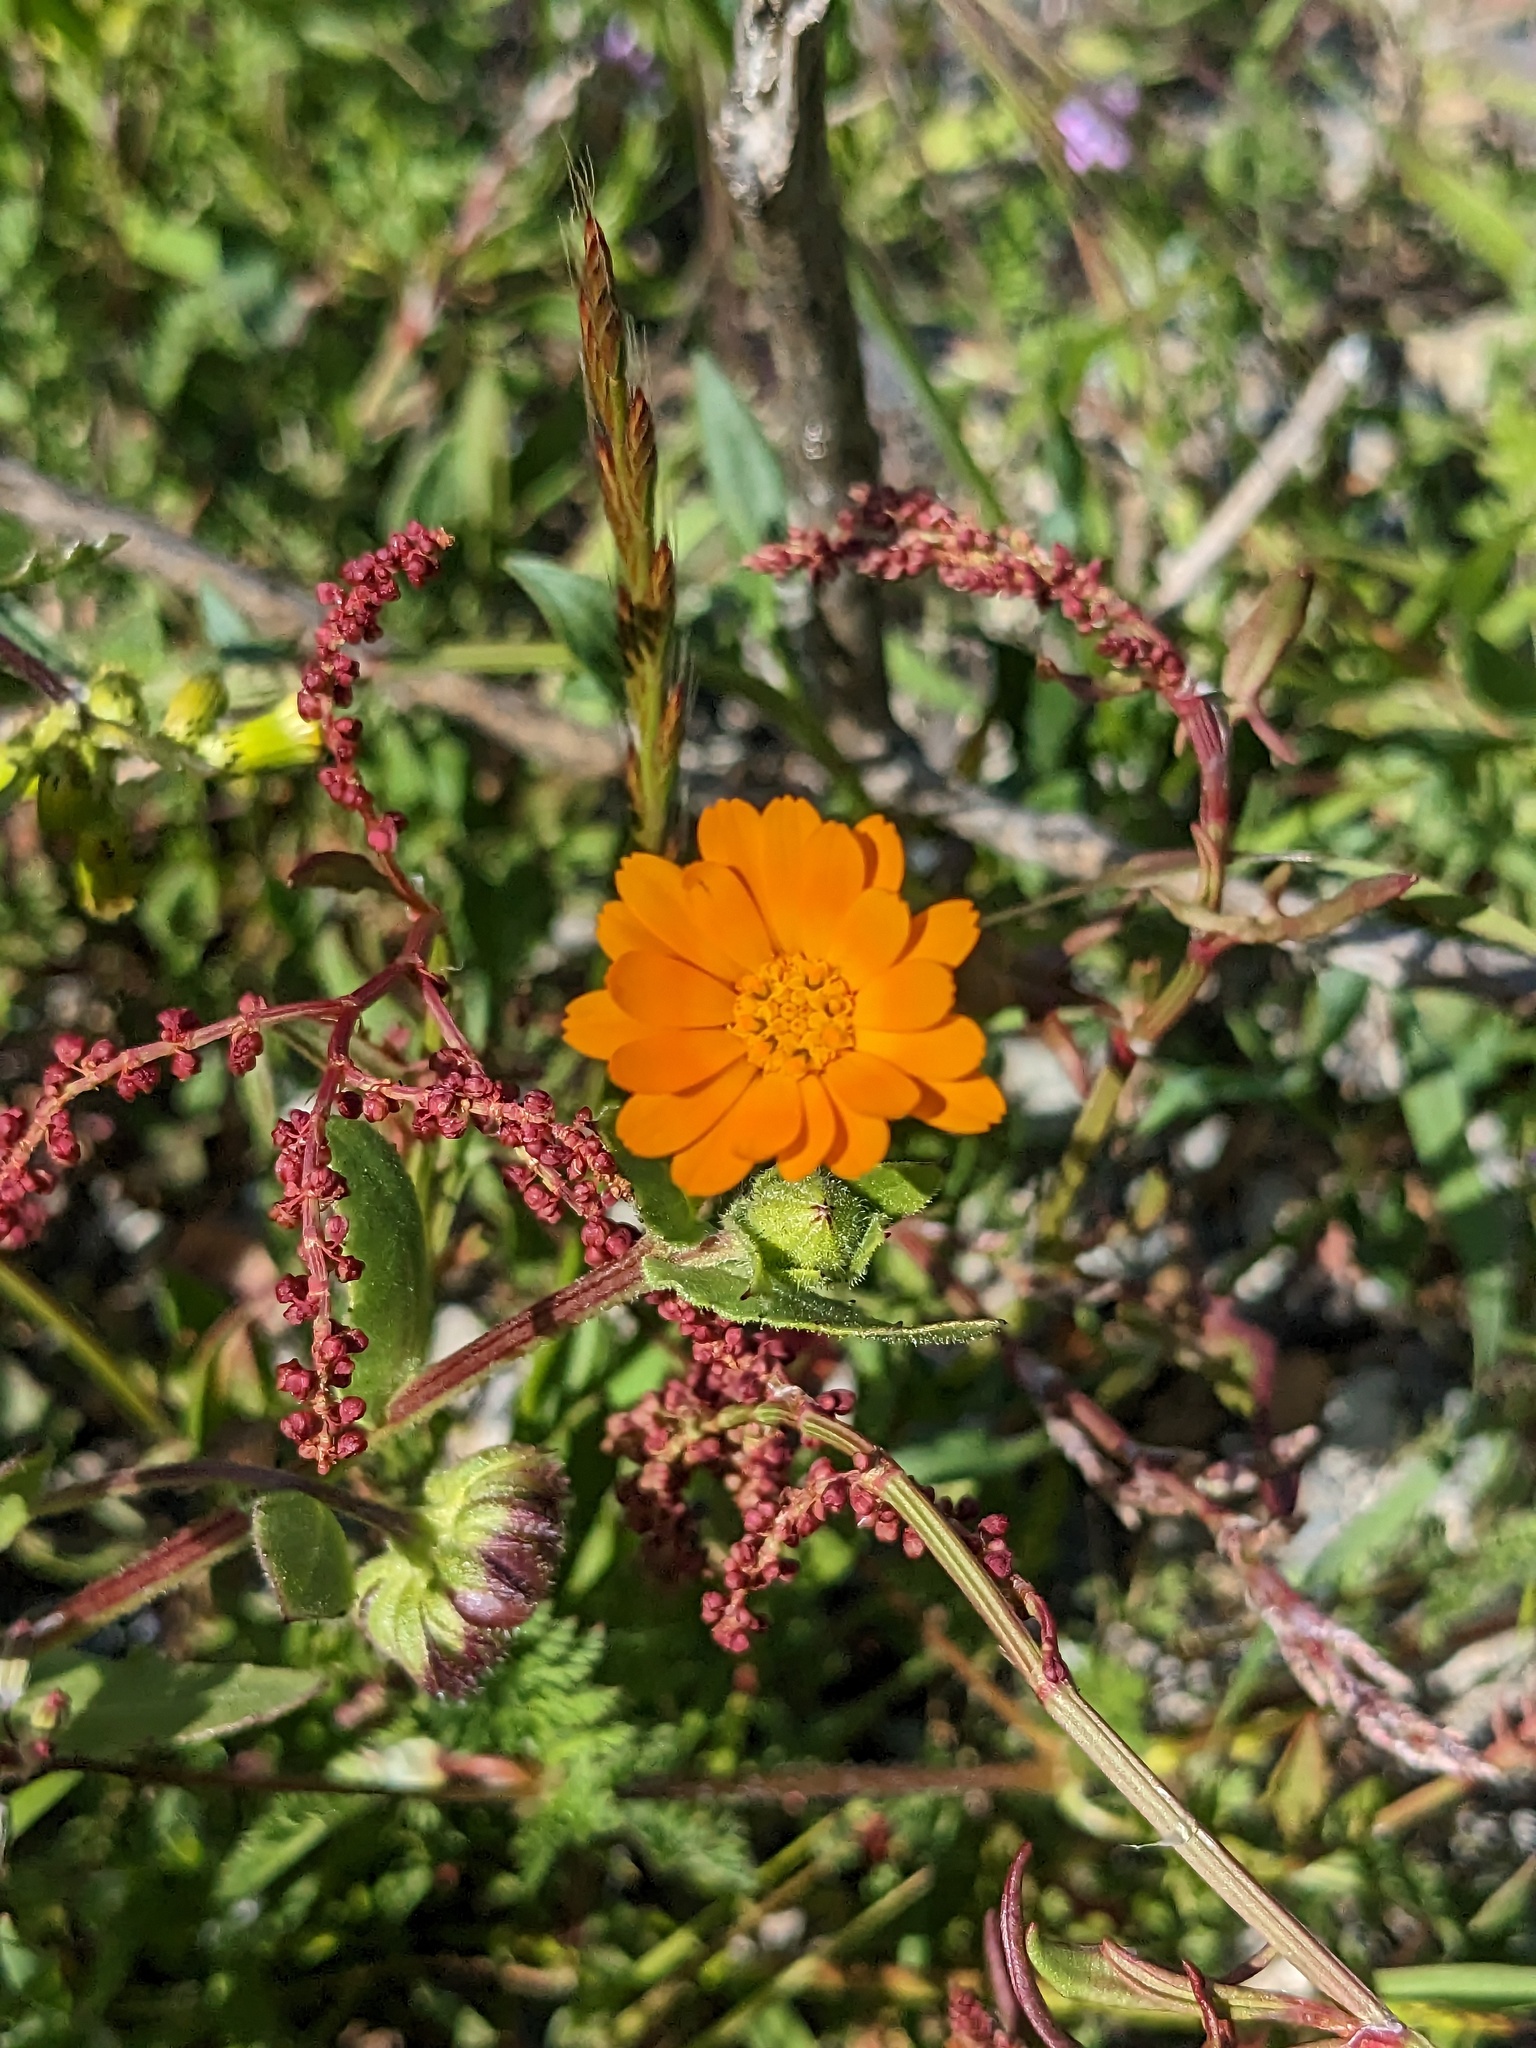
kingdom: Plantae
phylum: Tracheophyta
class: Magnoliopsida
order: Asterales
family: Asteraceae
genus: Calendula
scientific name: Calendula arvensis
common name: Field marigold
